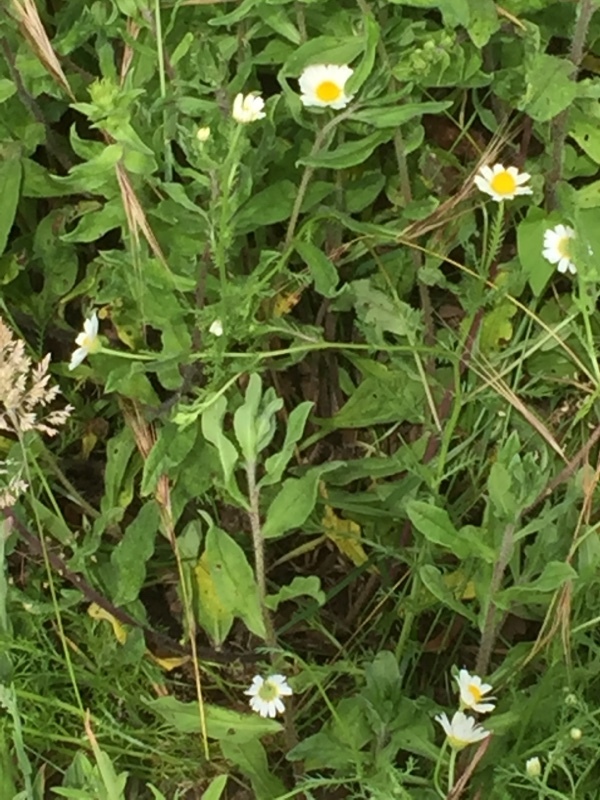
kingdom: Animalia
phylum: Arthropoda
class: Insecta
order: Orthoptera
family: Acrididae
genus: Omocestus
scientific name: Omocestus rufipes
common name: Woodland grasshopper
